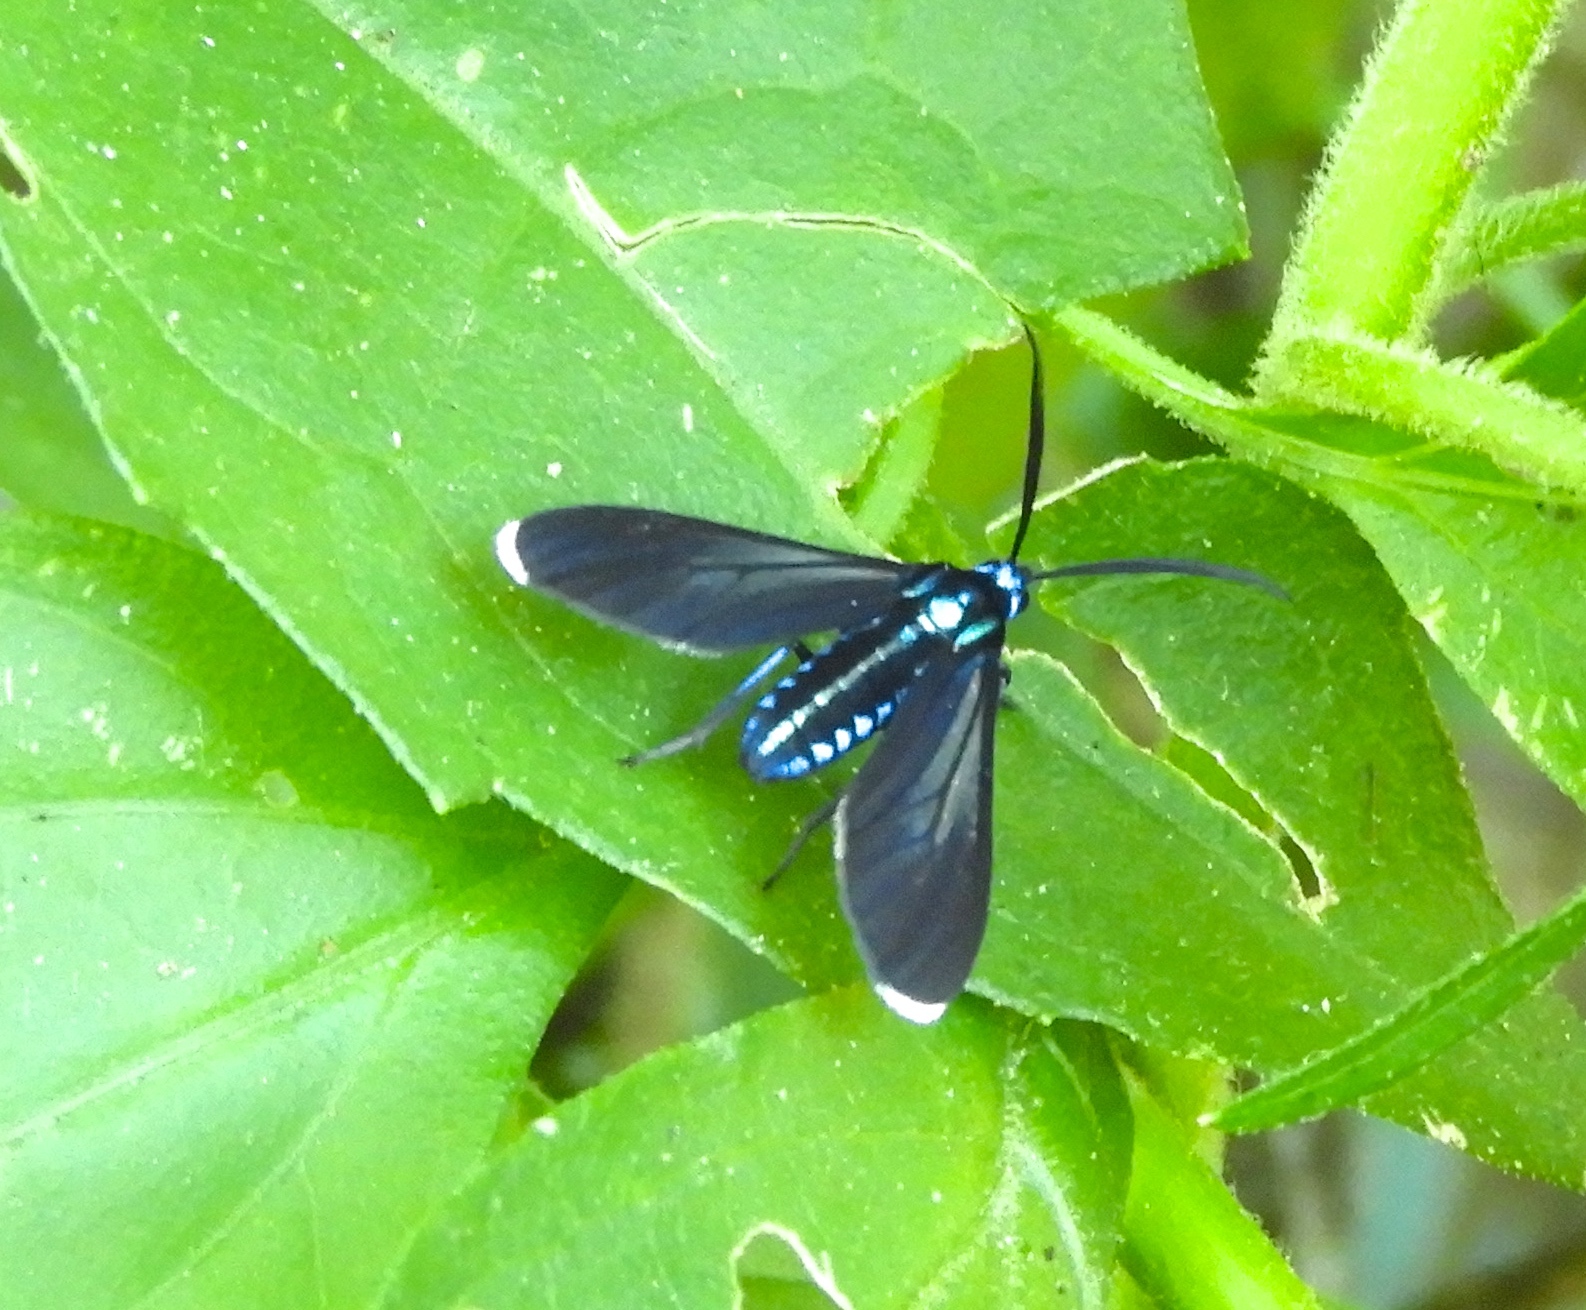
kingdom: Animalia
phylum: Arthropoda
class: Insecta
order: Lepidoptera
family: Erebidae
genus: Uranophora
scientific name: Uranophora leucotela
